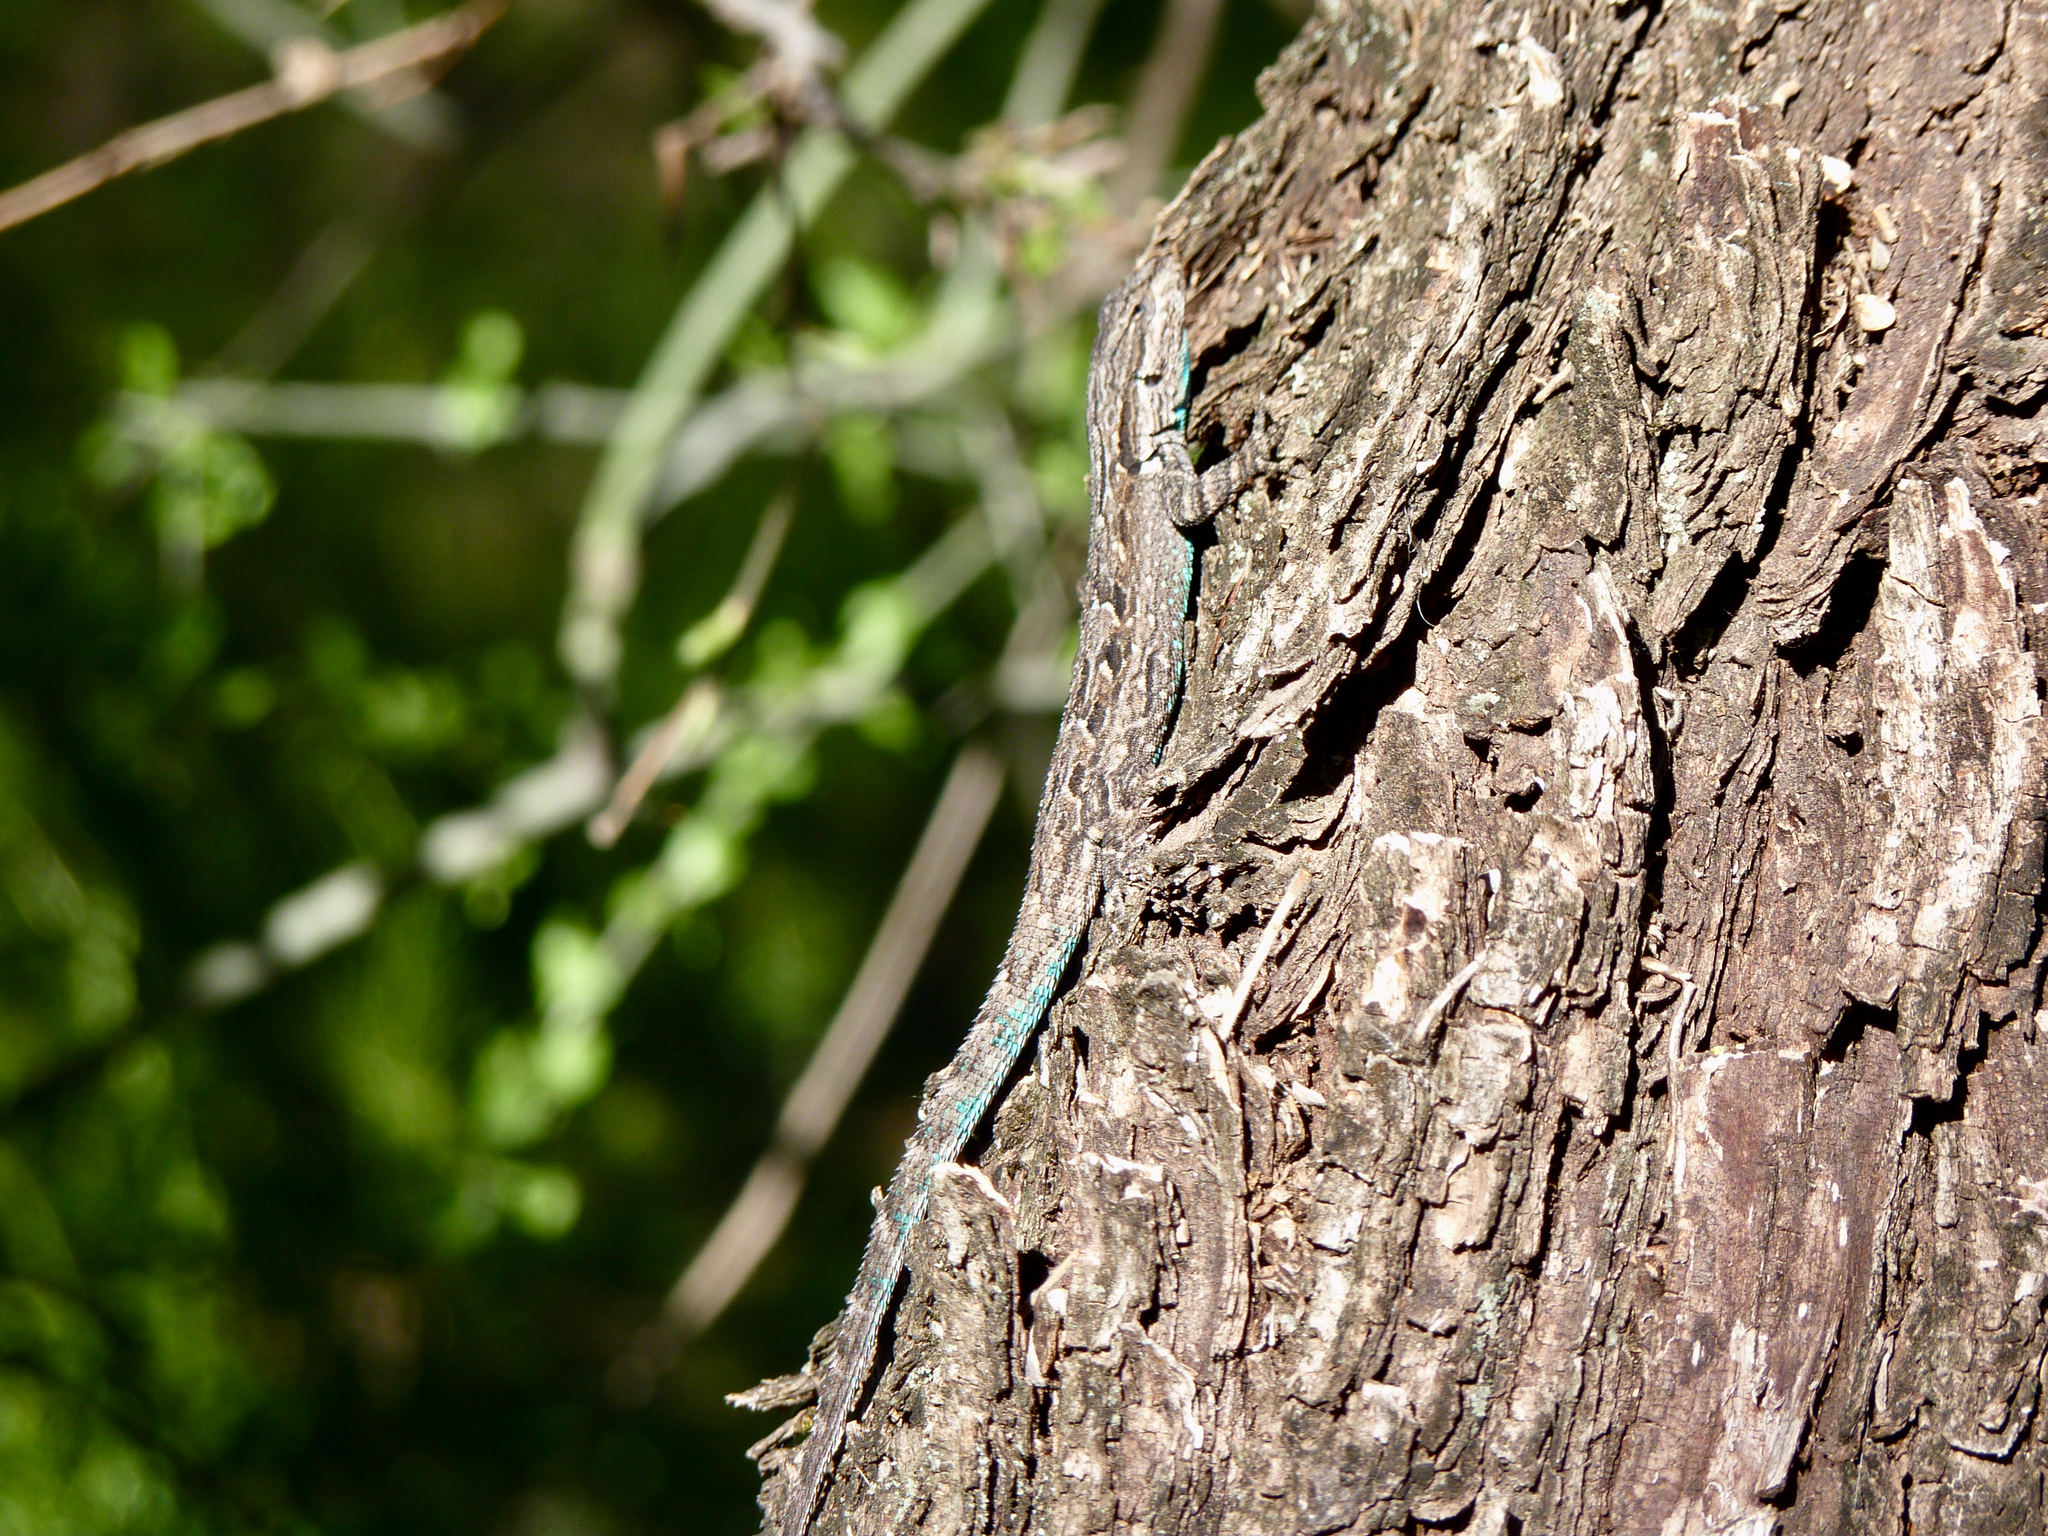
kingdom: Animalia
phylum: Chordata
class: Squamata
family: Phrynosomatidae
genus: Urosaurus
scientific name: Urosaurus ornatus
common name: Ornate tree lizard
